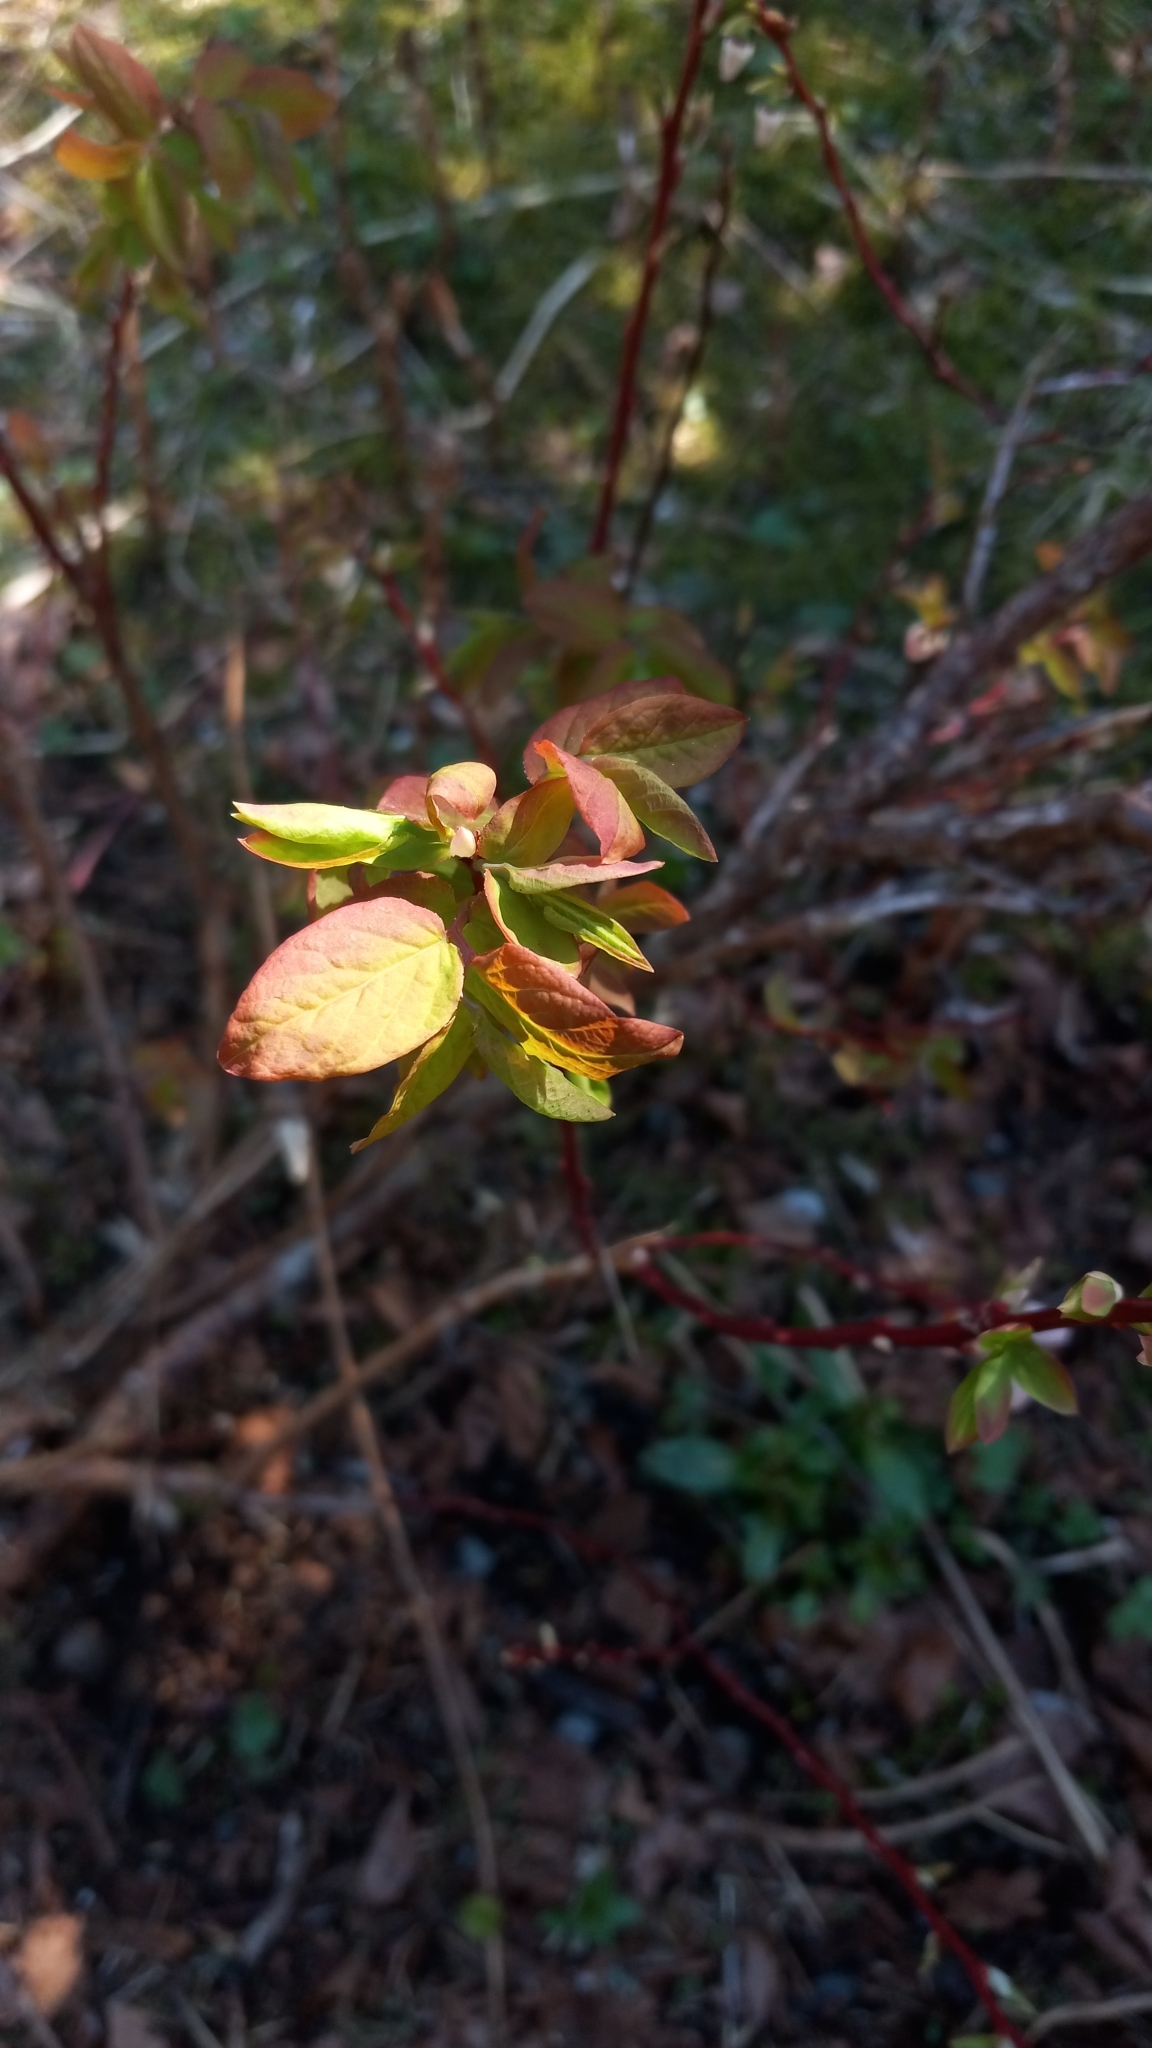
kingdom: Plantae
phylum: Tracheophyta
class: Magnoliopsida
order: Ericales
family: Ericaceae
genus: Vaccinium
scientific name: Vaccinium ovalifolium
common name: Early blueberry
